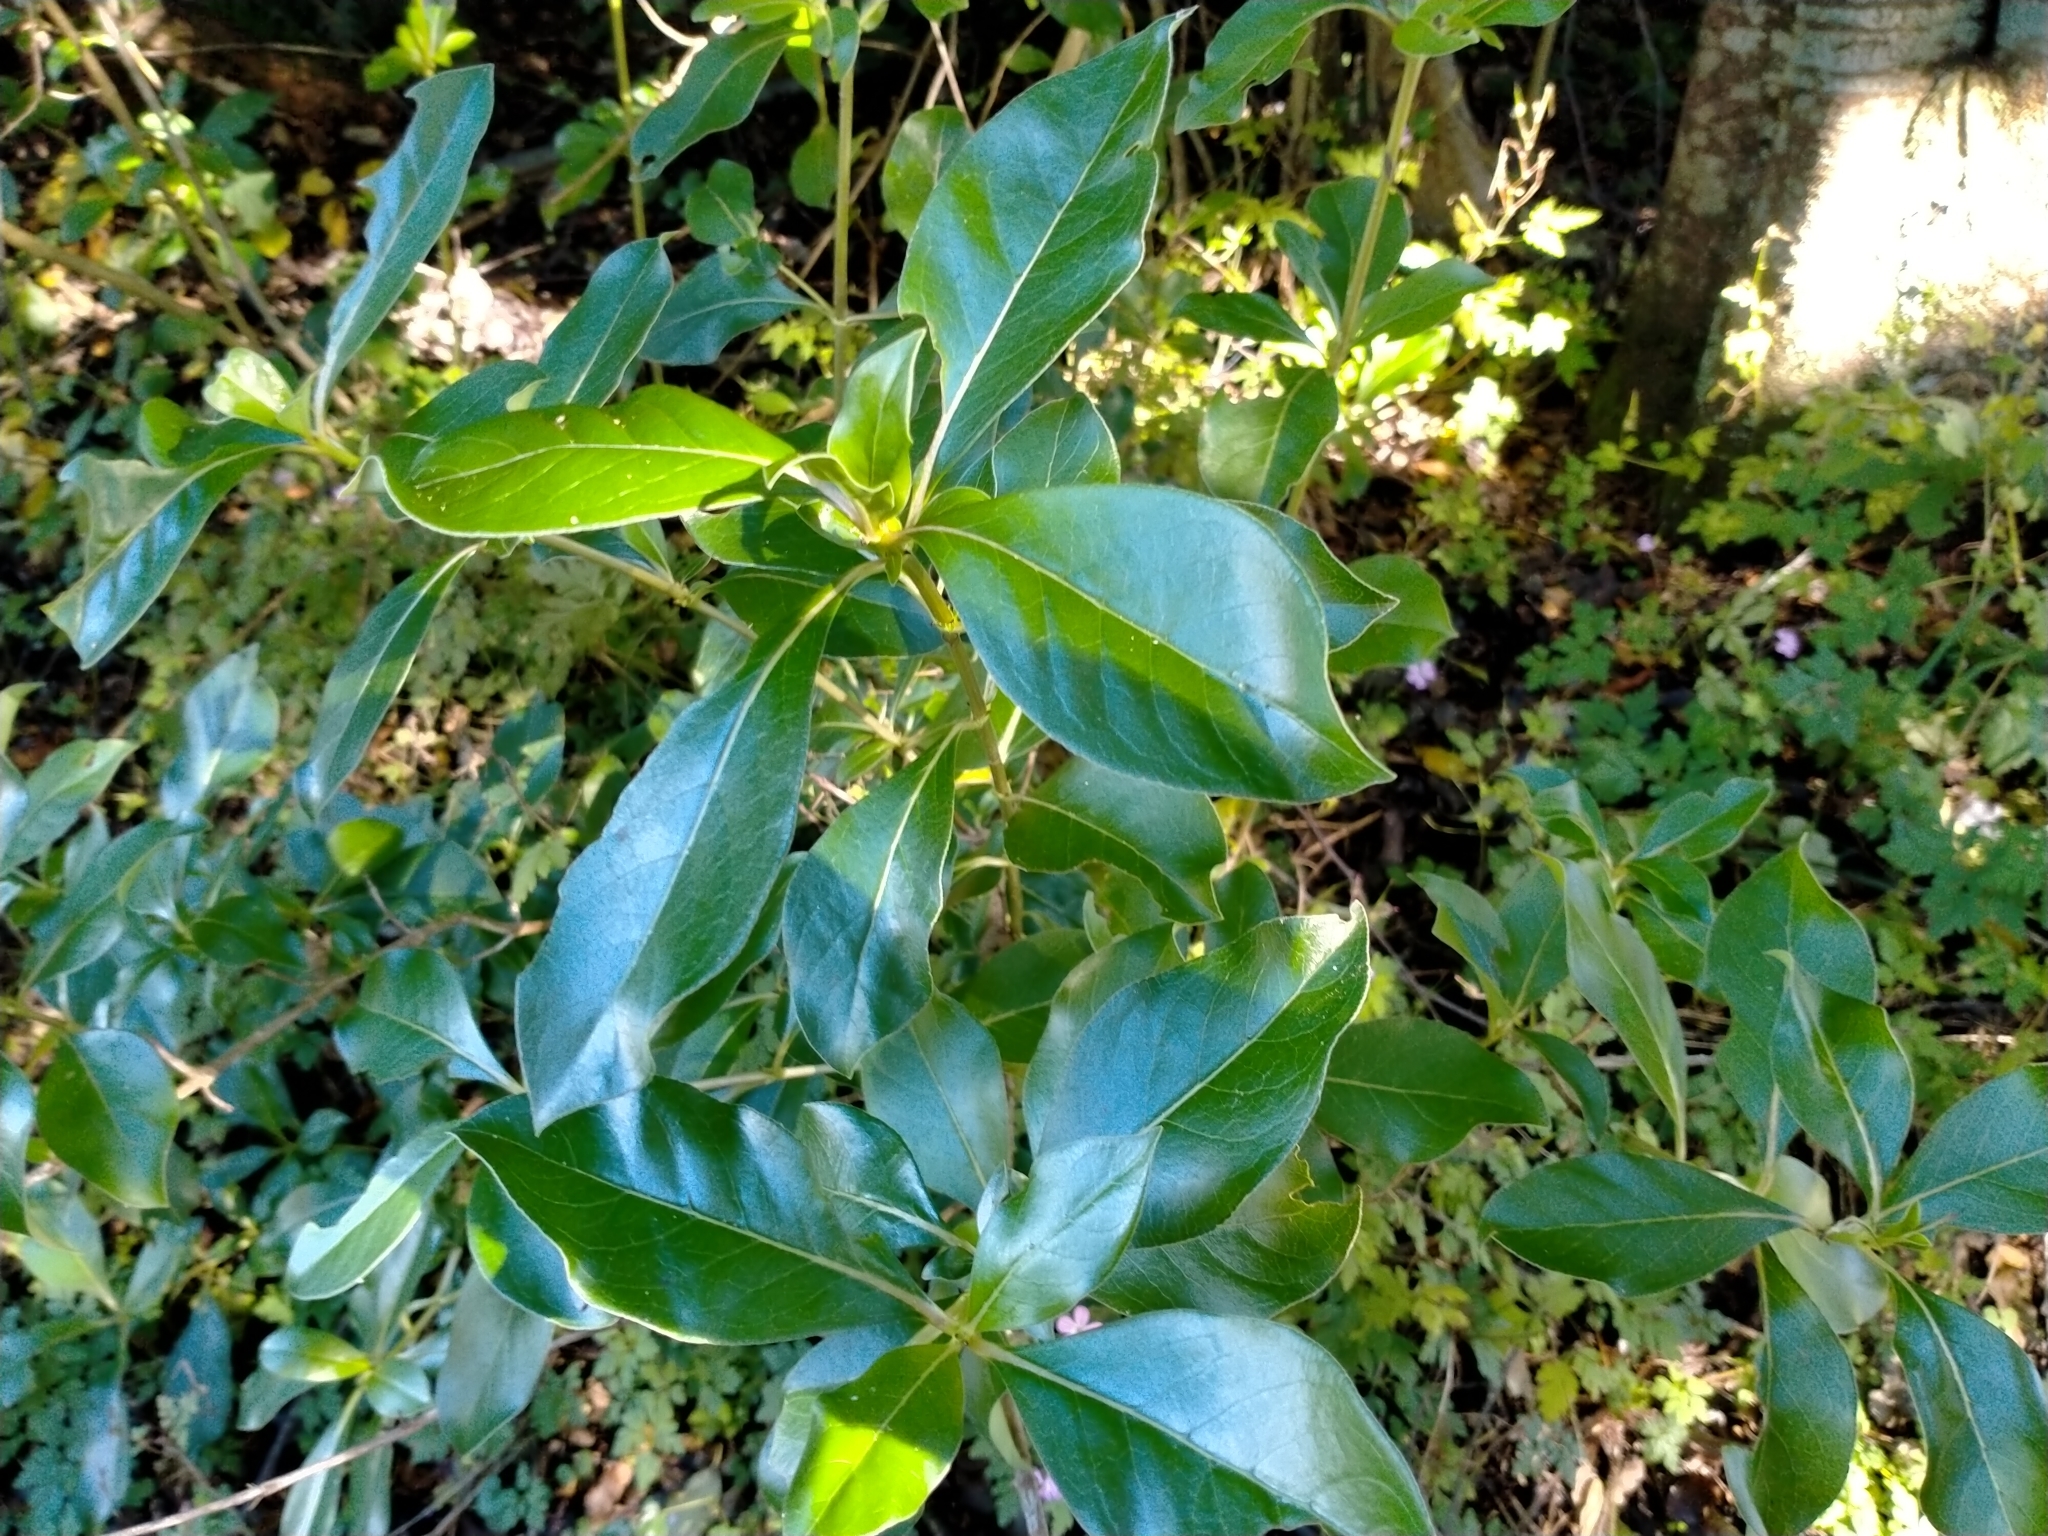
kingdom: Plantae
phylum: Tracheophyta
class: Magnoliopsida
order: Gentianales
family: Rubiaceae
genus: Coprosma
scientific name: Coprosma robusta
